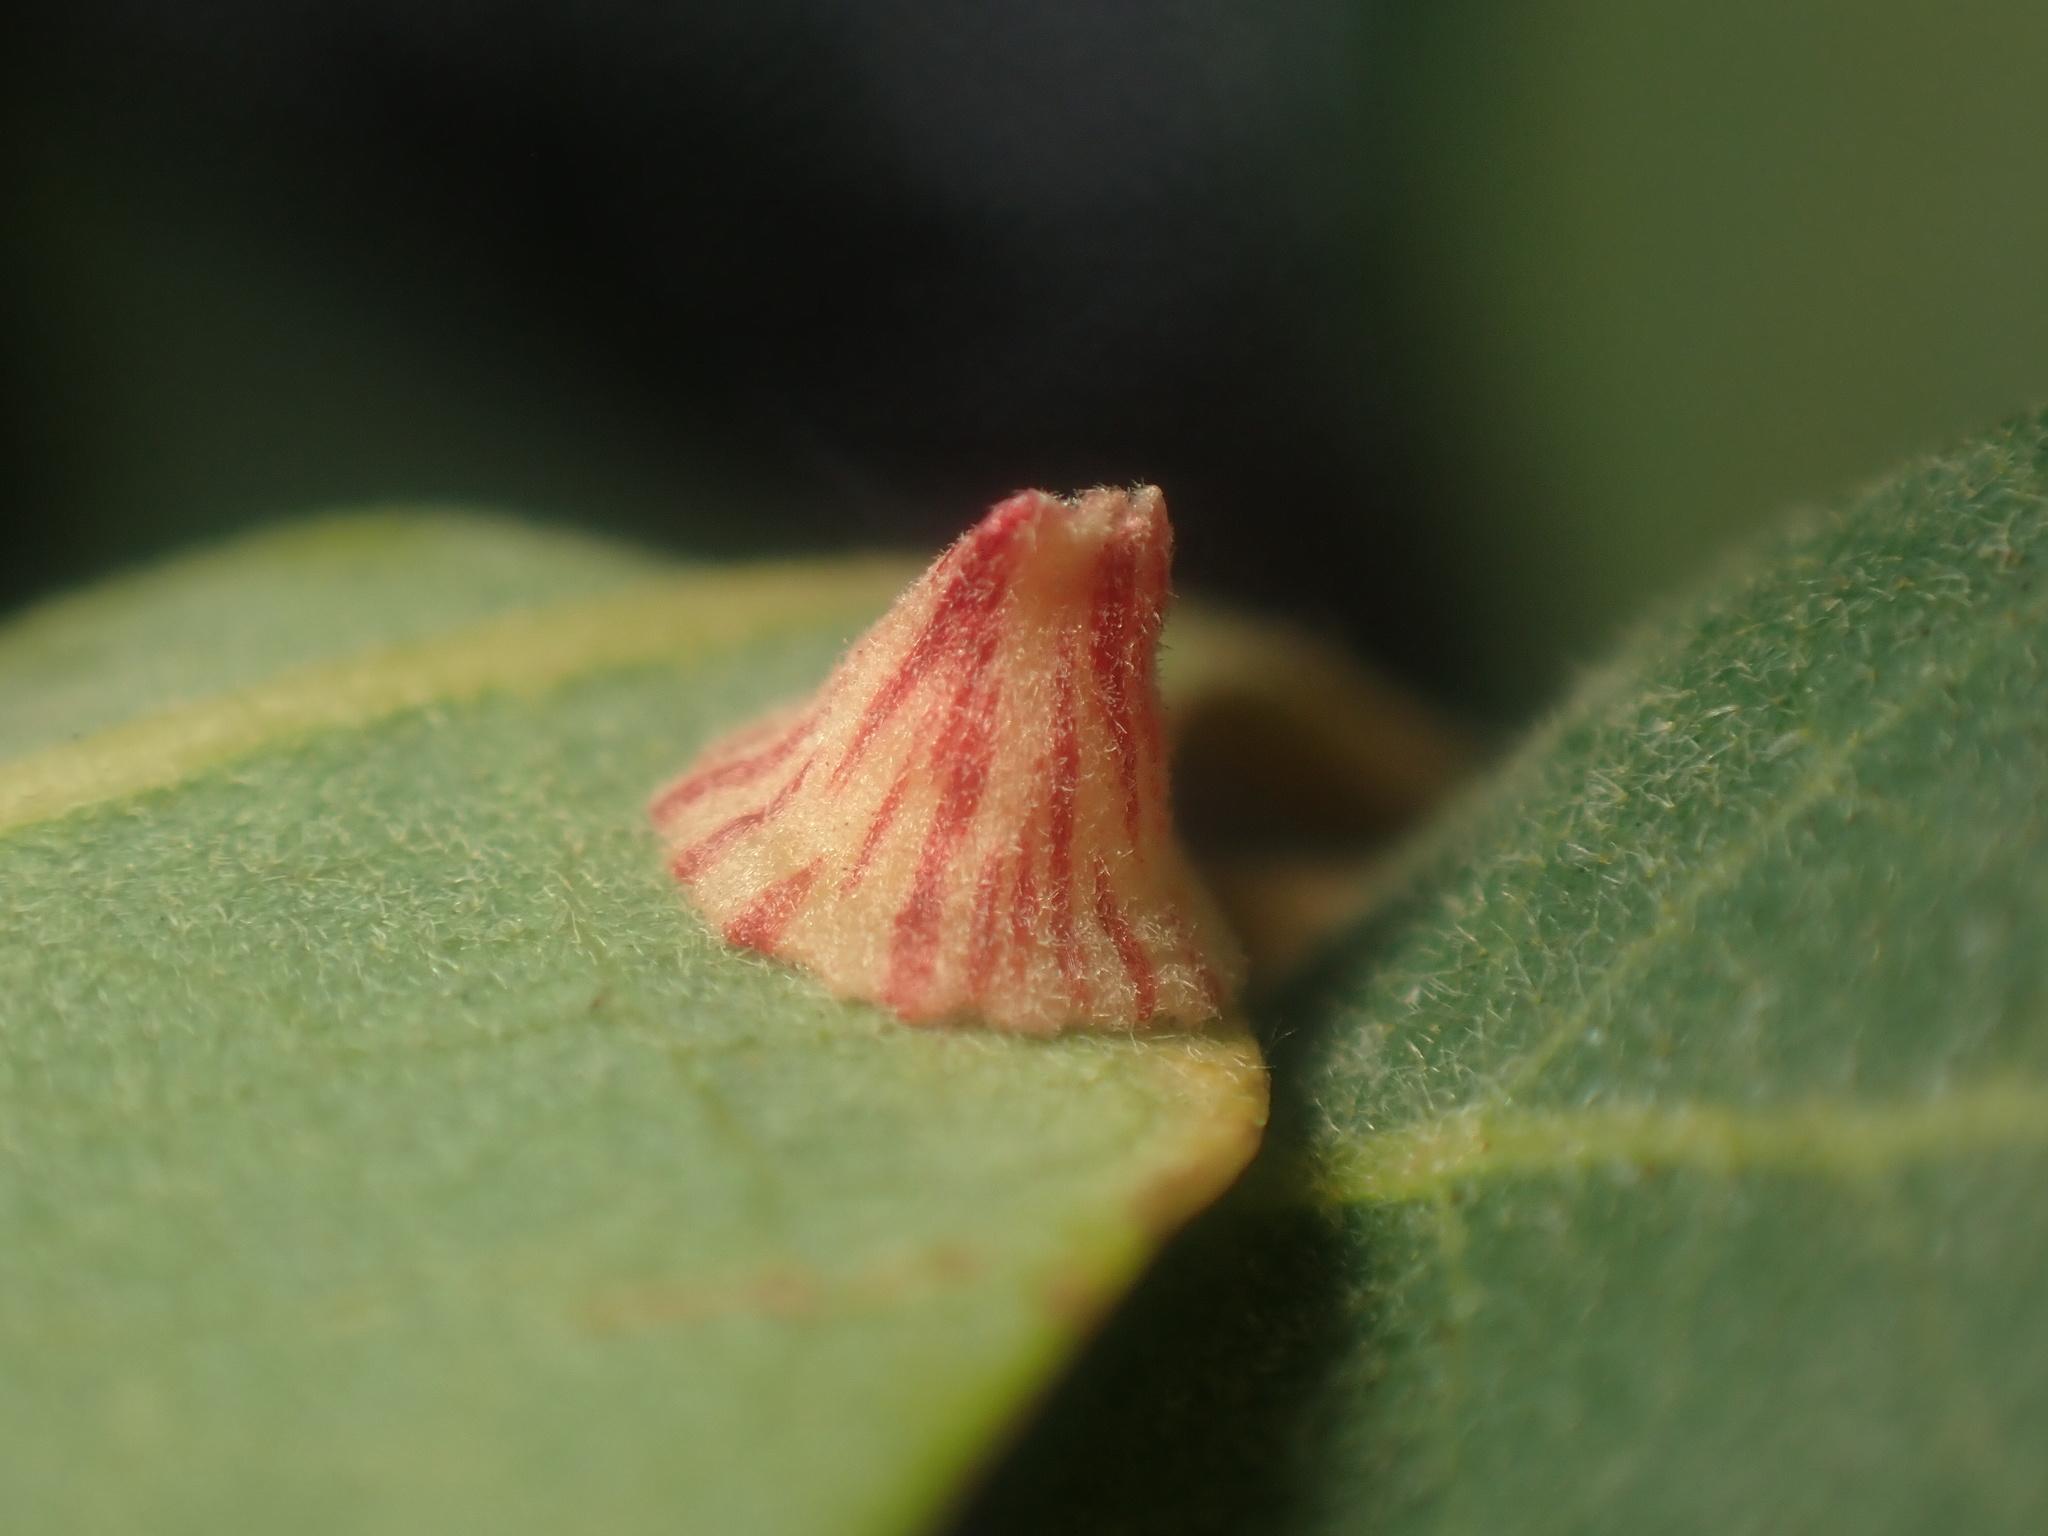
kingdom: Animalia
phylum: Arthropoda
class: Insecta
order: Hymenoptera
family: Cynipidae
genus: Andricus
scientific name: Andricus
